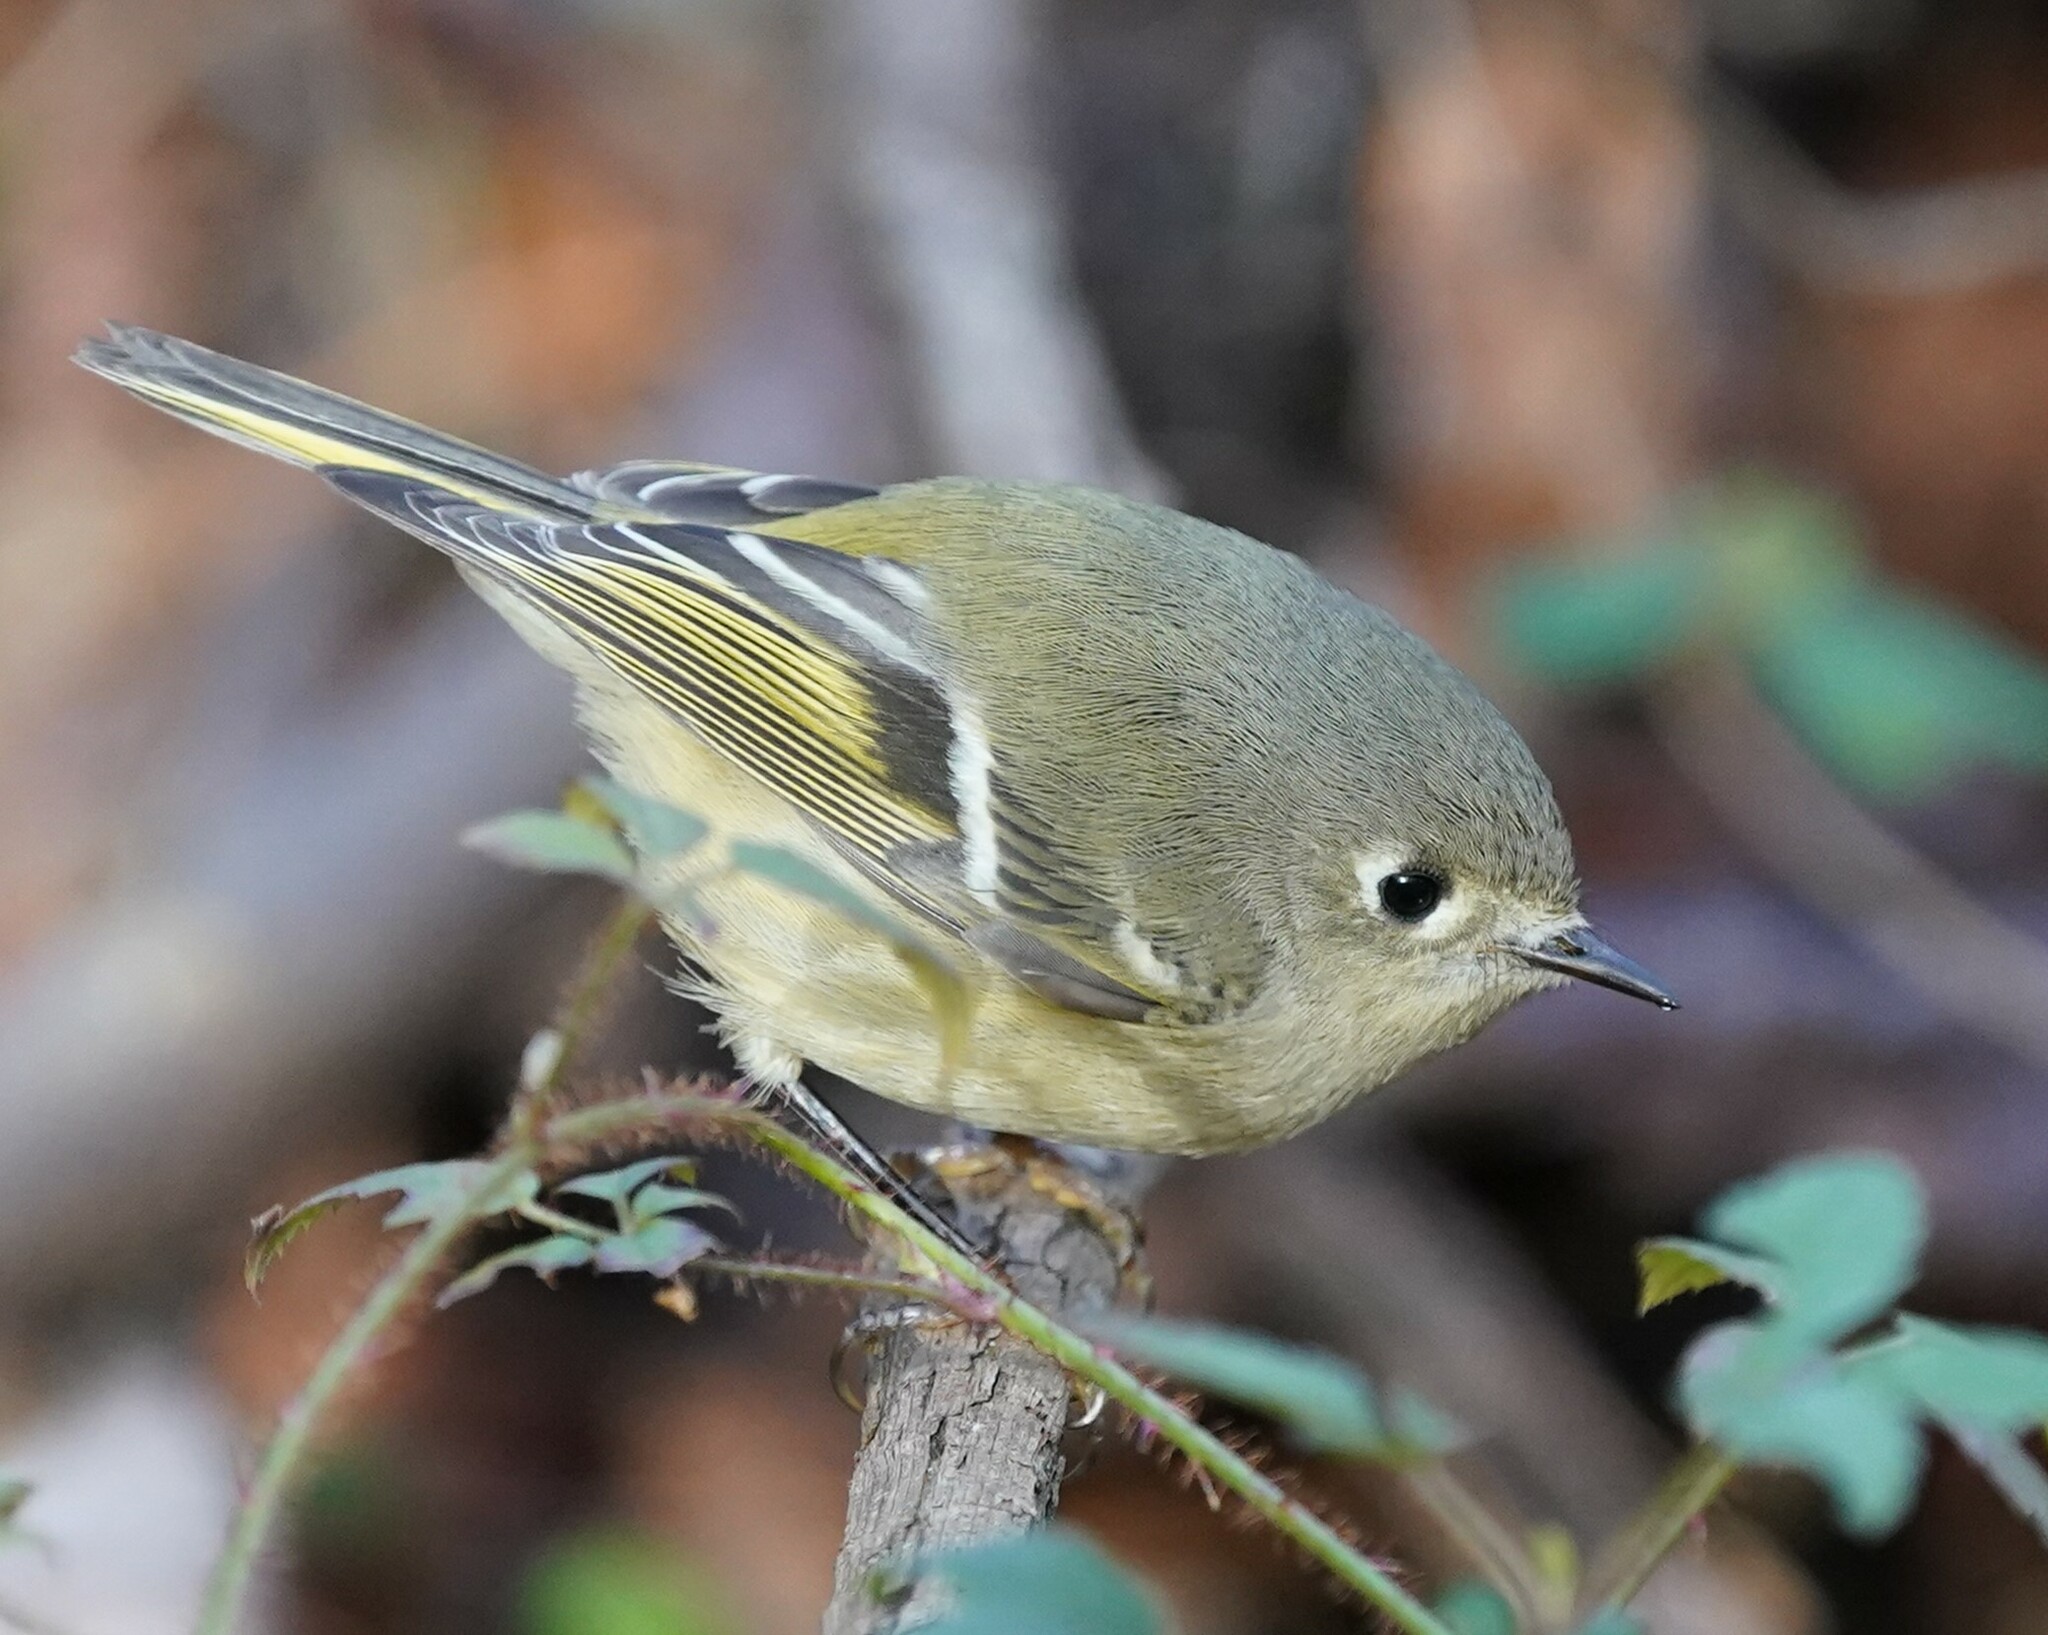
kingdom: Animalia
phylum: Chordata
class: Aves
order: Passeriformes
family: Regulidae
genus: Regulus
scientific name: Regulus calendula
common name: Ruby-crowned kinglet
